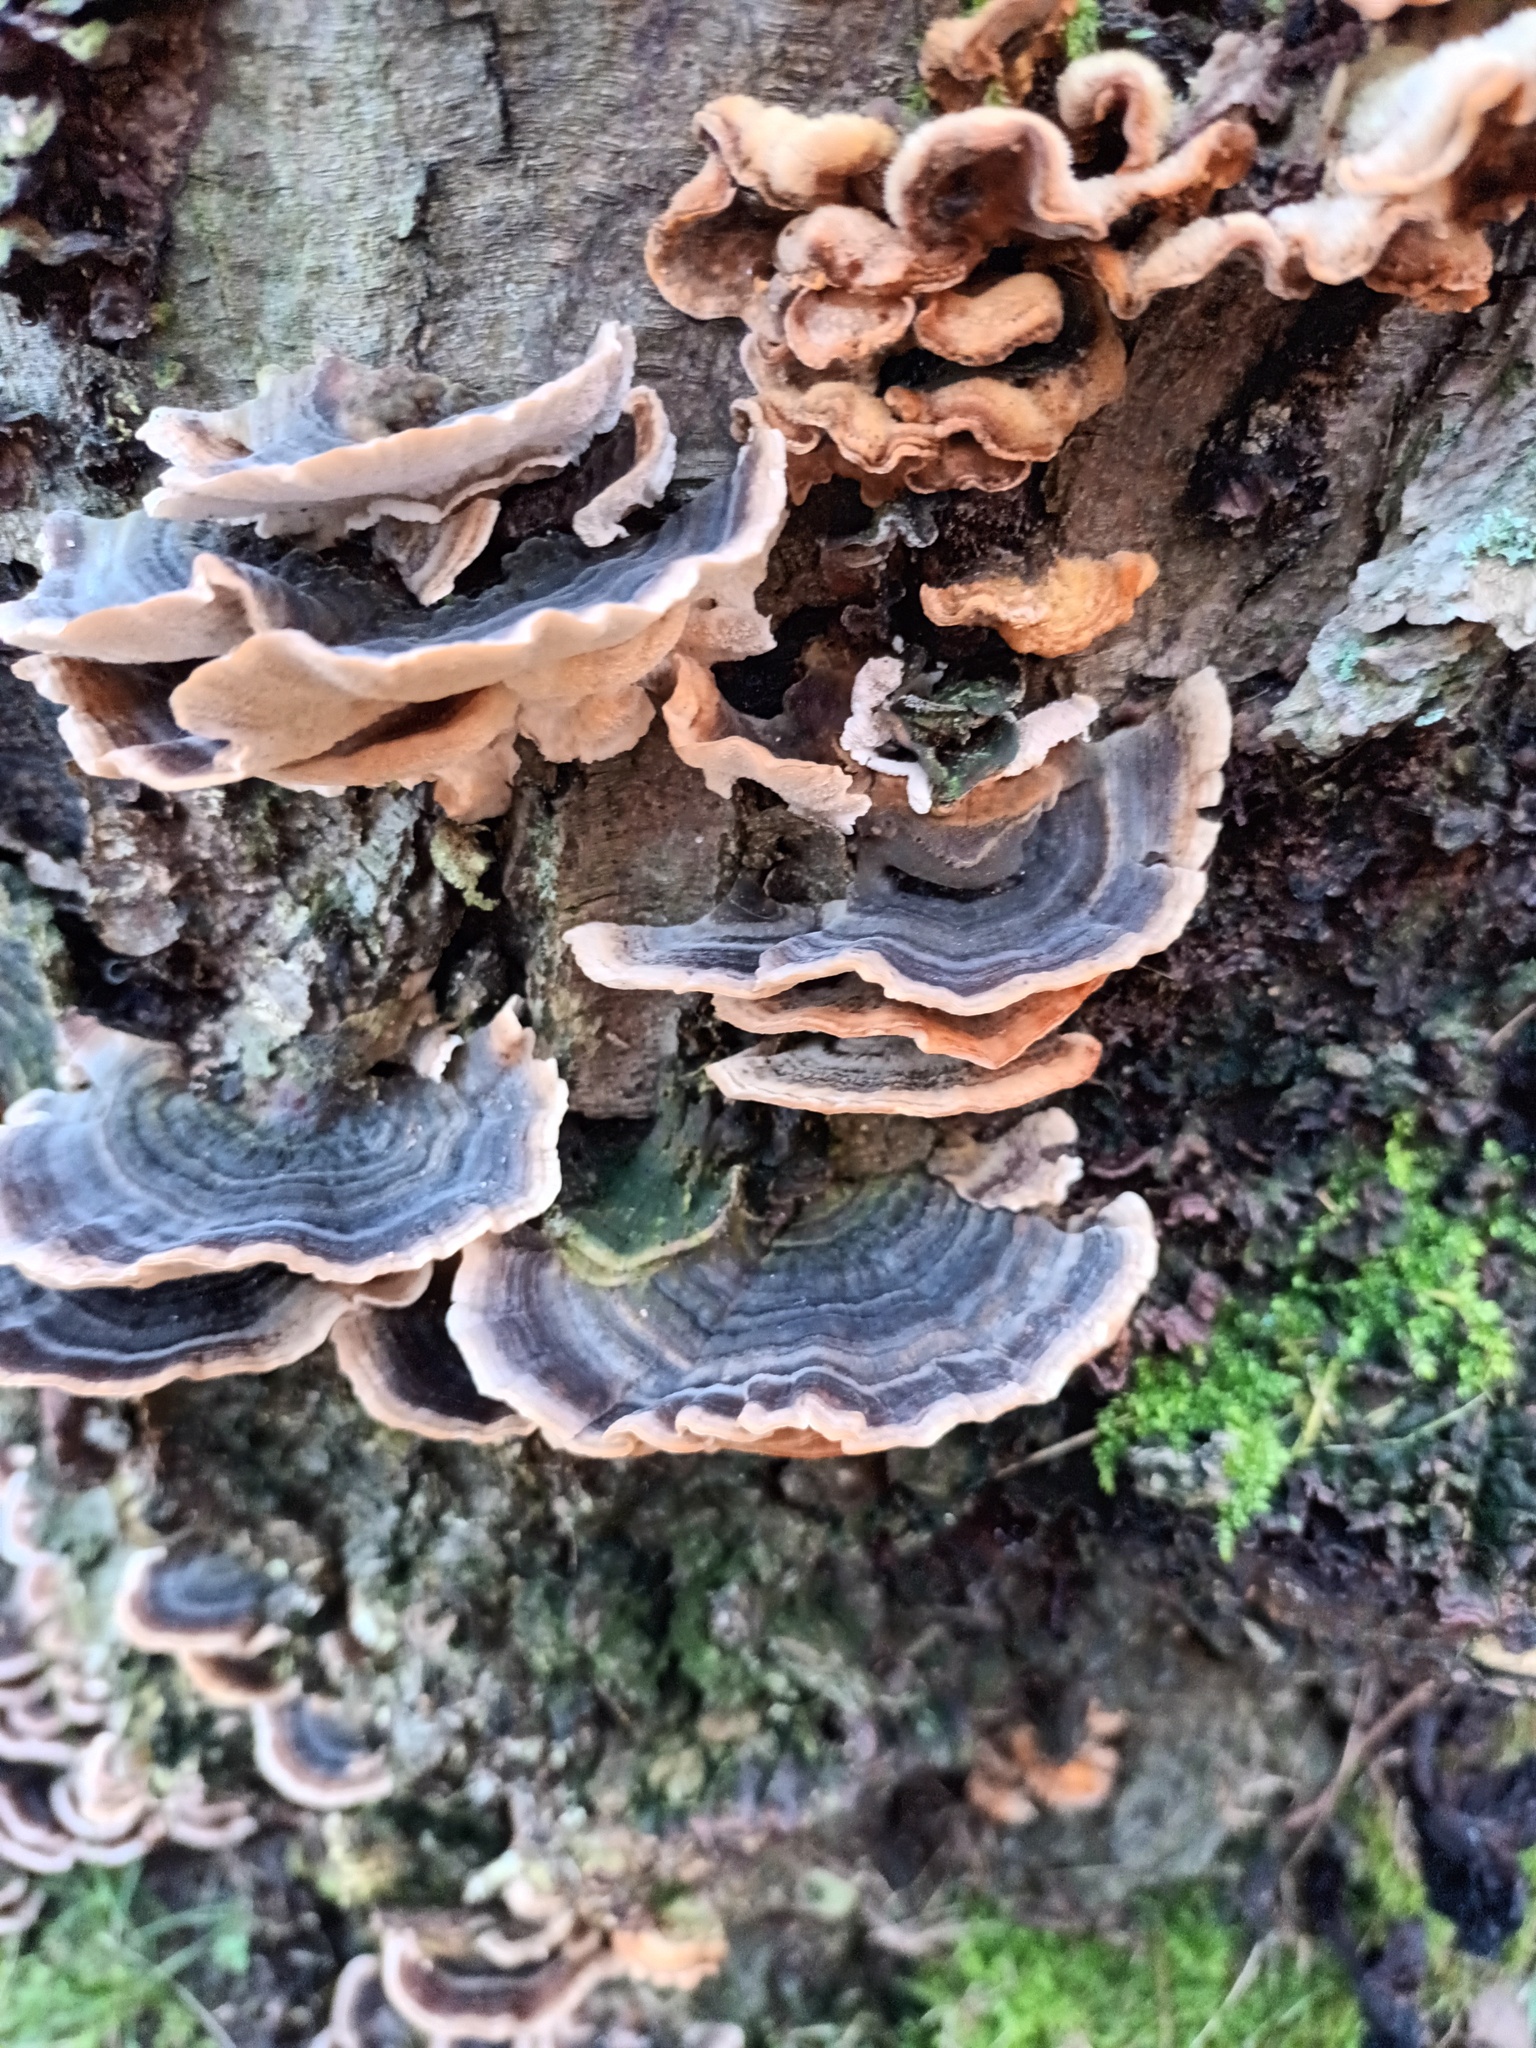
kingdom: Fungi
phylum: Basidiomycota
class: Agaricomycetes
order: Polyporales
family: Polyporaceae
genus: Trametes
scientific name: Trametes versicolor
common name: Turkeytail
